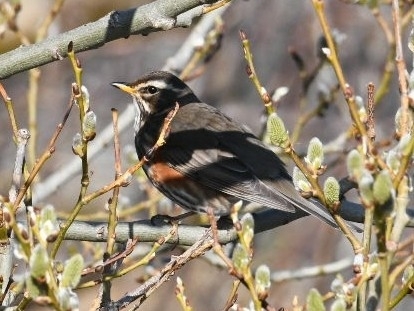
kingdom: Animalia
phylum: Chordata
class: Aves
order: Passeriformes
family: Turdidae
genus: Turdus
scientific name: Turdus iliacus
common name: Redwing
